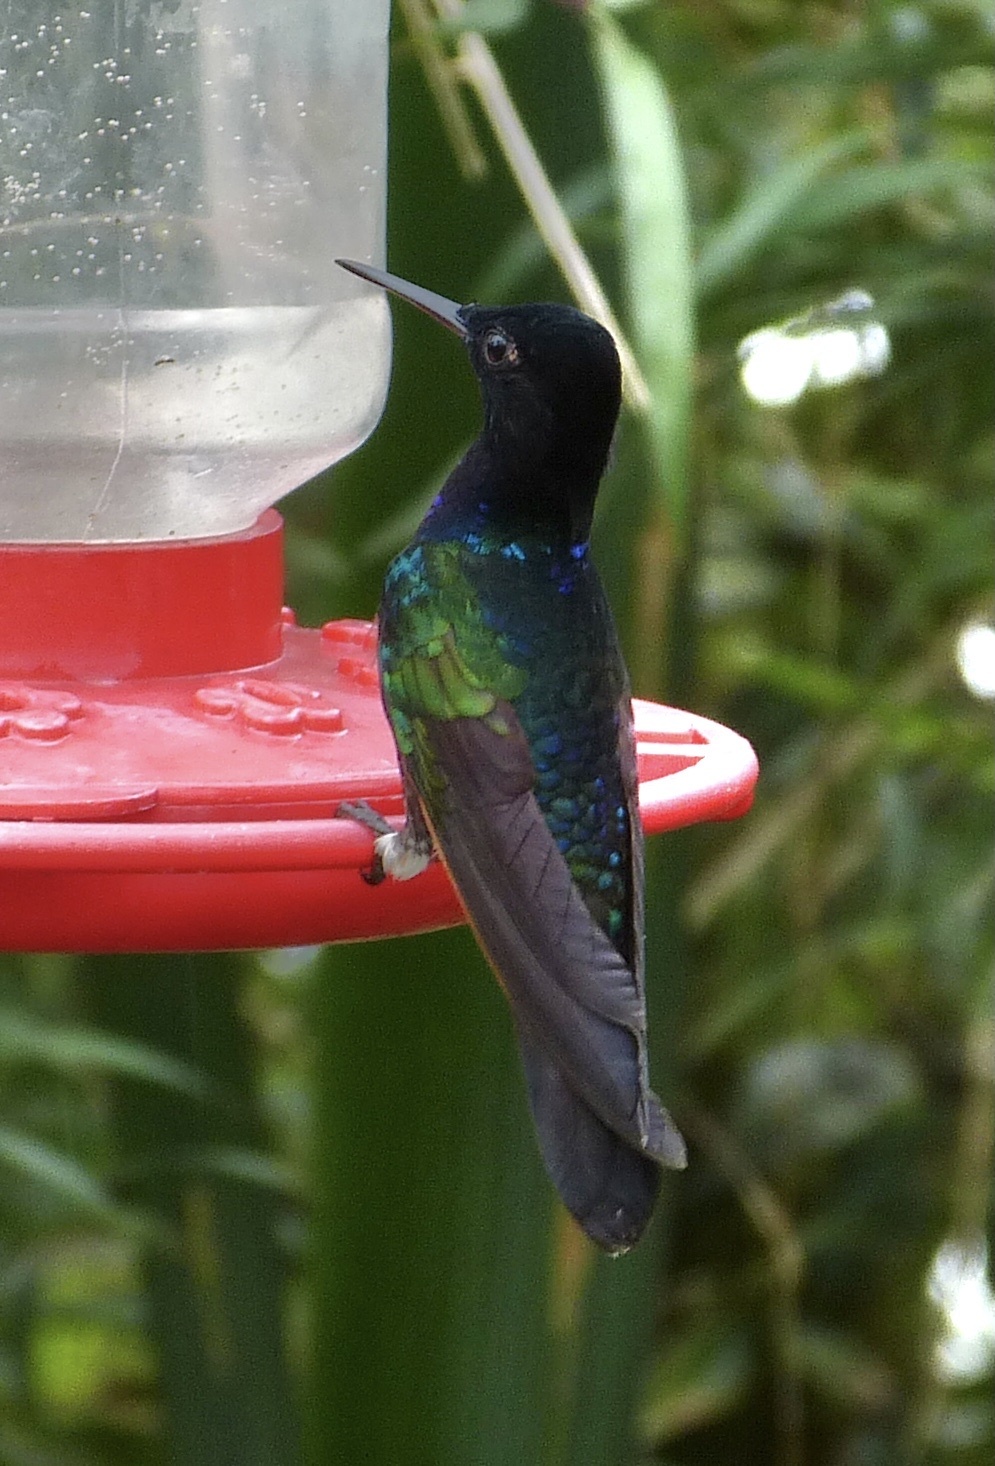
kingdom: Animalia
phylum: Chordata
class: Aves
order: Apodiformes
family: Trochilidae
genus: Boissonneaua
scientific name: Boissonneaua jardini
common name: Velvet-purple coronet
